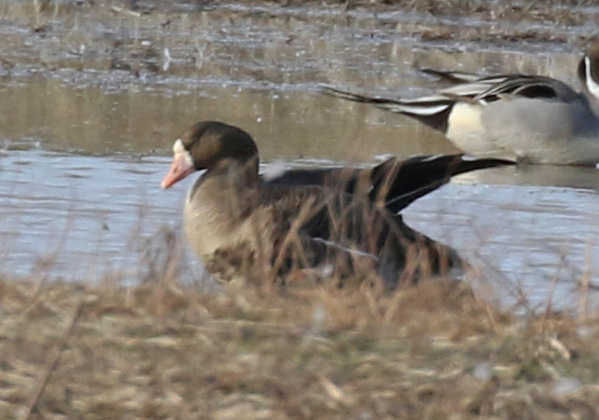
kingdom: Animalia
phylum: Chordata
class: Aves
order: Anseriformes
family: Anatidae
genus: Anser
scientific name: Anser albifrons
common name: Greater white-fronted goose
